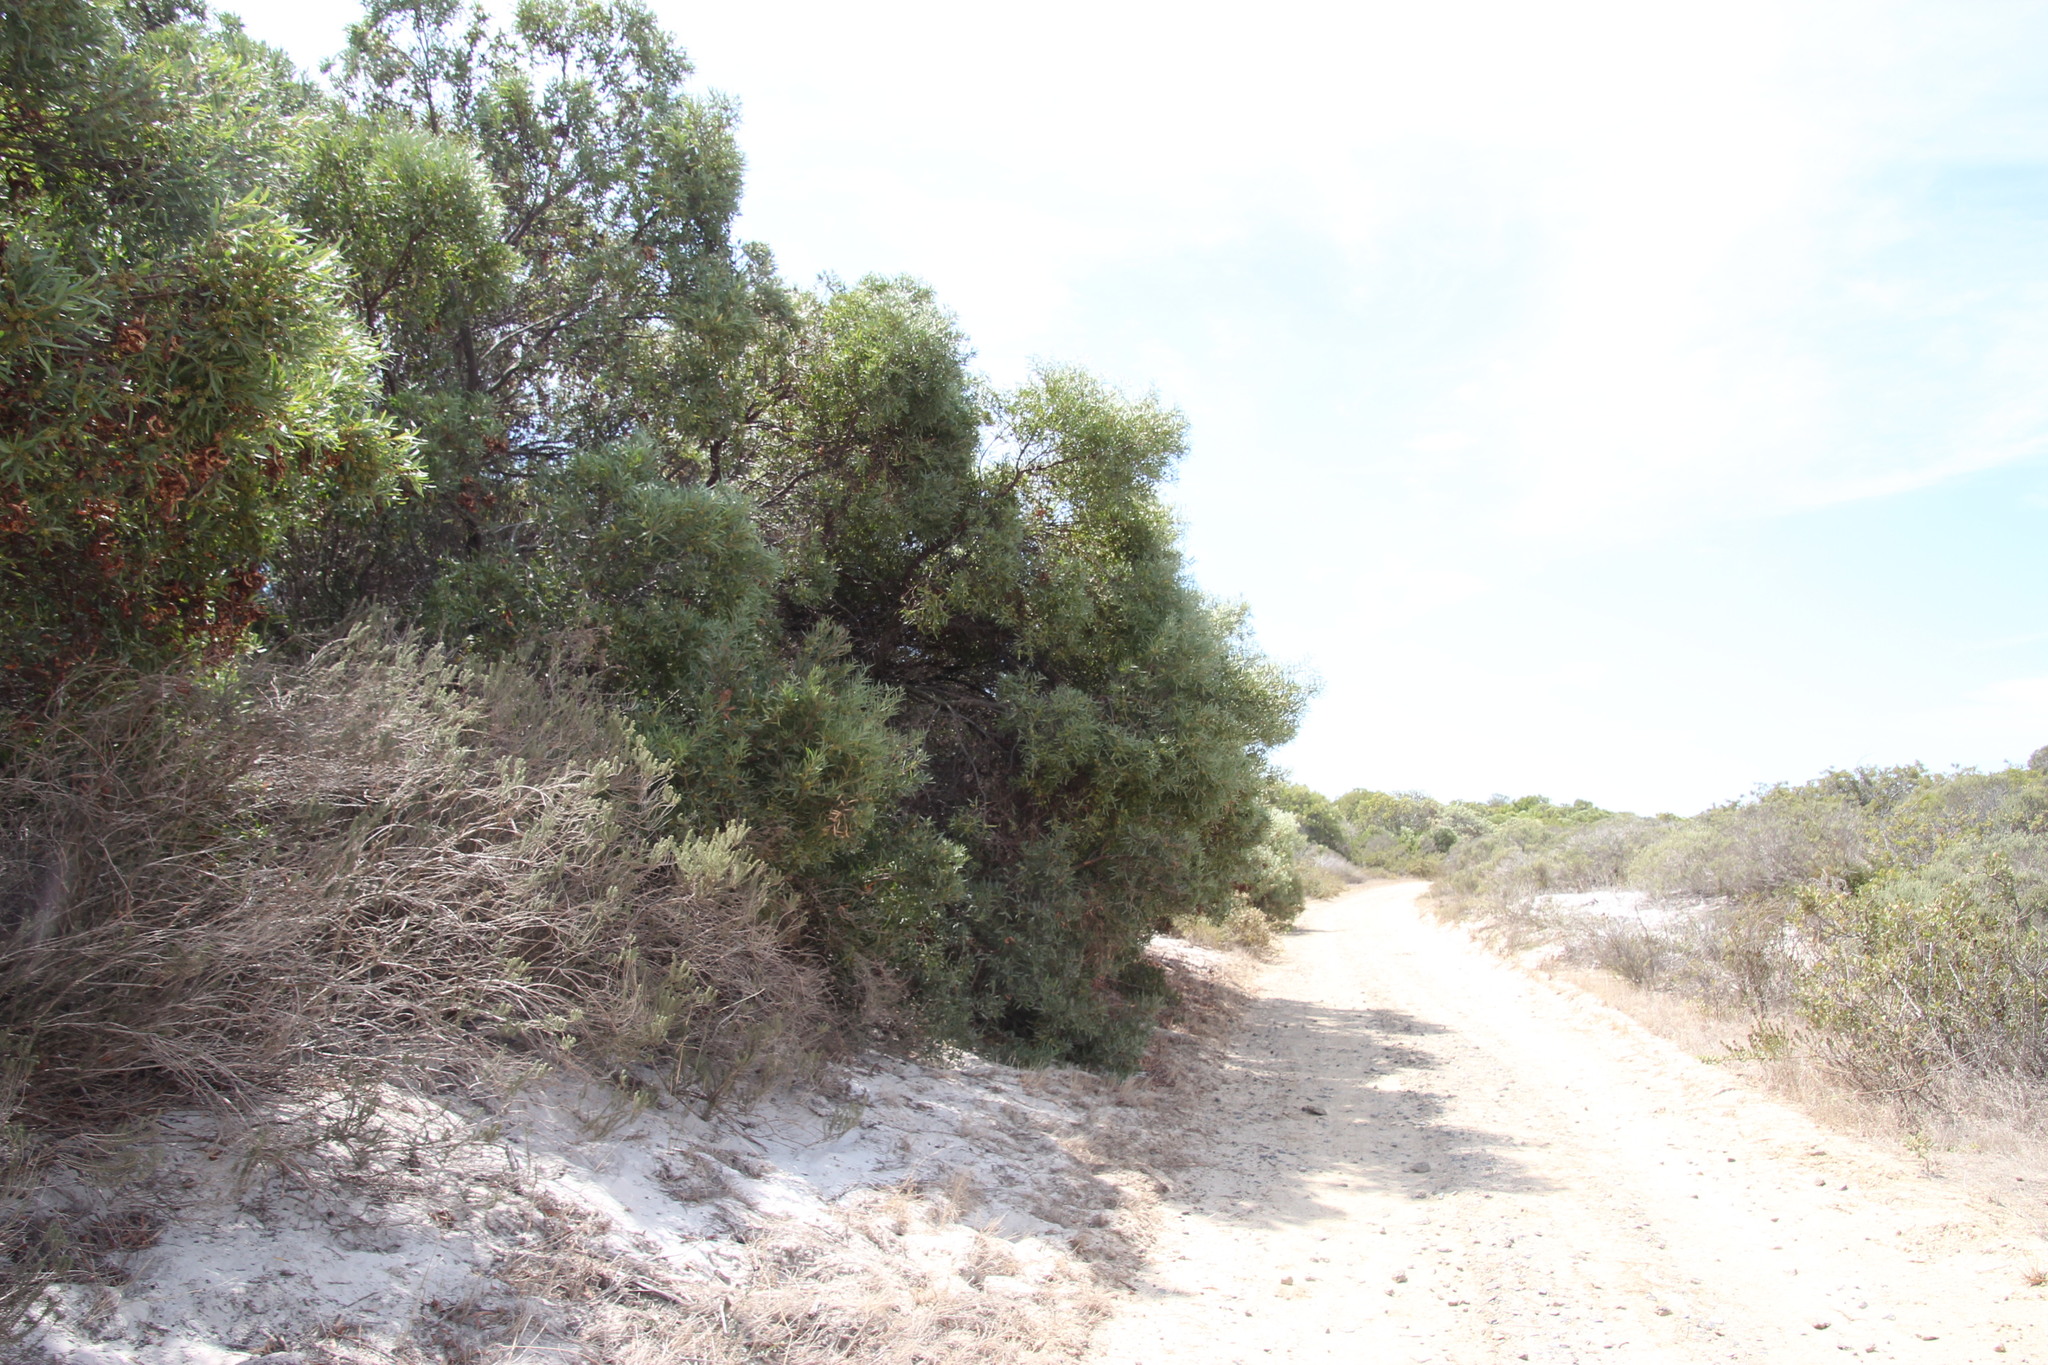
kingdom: Plantae
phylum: Tracheophyta
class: Magnoliopsida
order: Fabales
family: Fabaceae
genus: Acacia
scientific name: Acacia cyclops
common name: Coastal wattle
